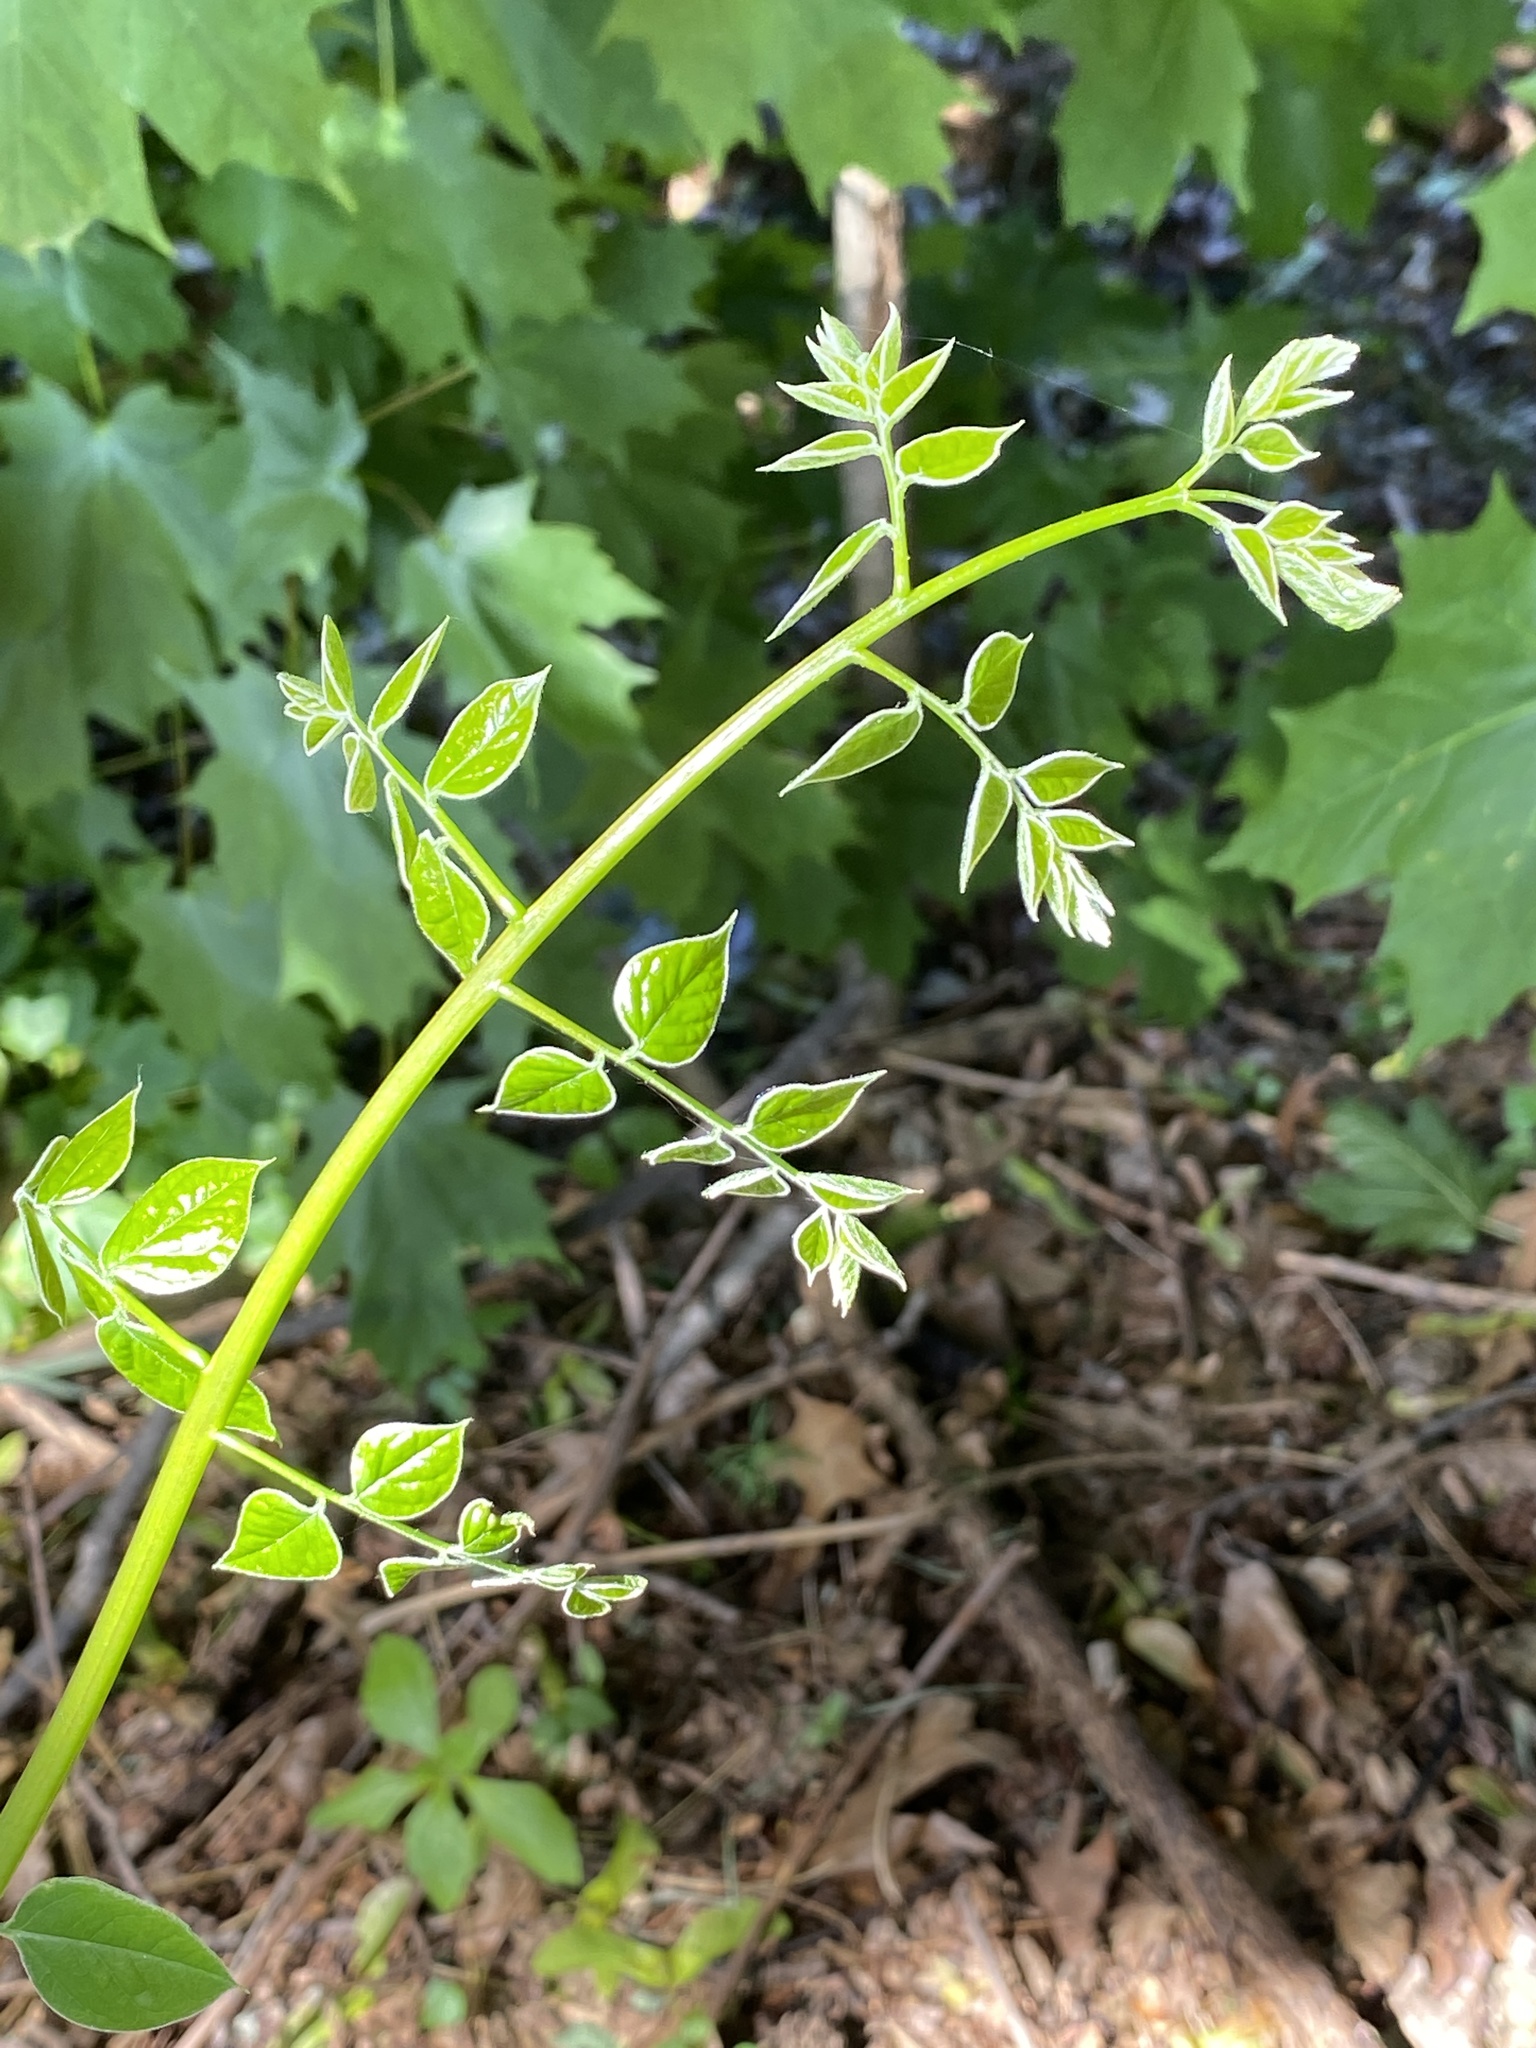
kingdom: Plantae
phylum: Tracheophyta
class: Magnoliopsida
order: Fabales
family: Fabaceae
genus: Gymnocladus
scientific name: Gymnocladus dioicus
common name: Kentucky coffee-tree
